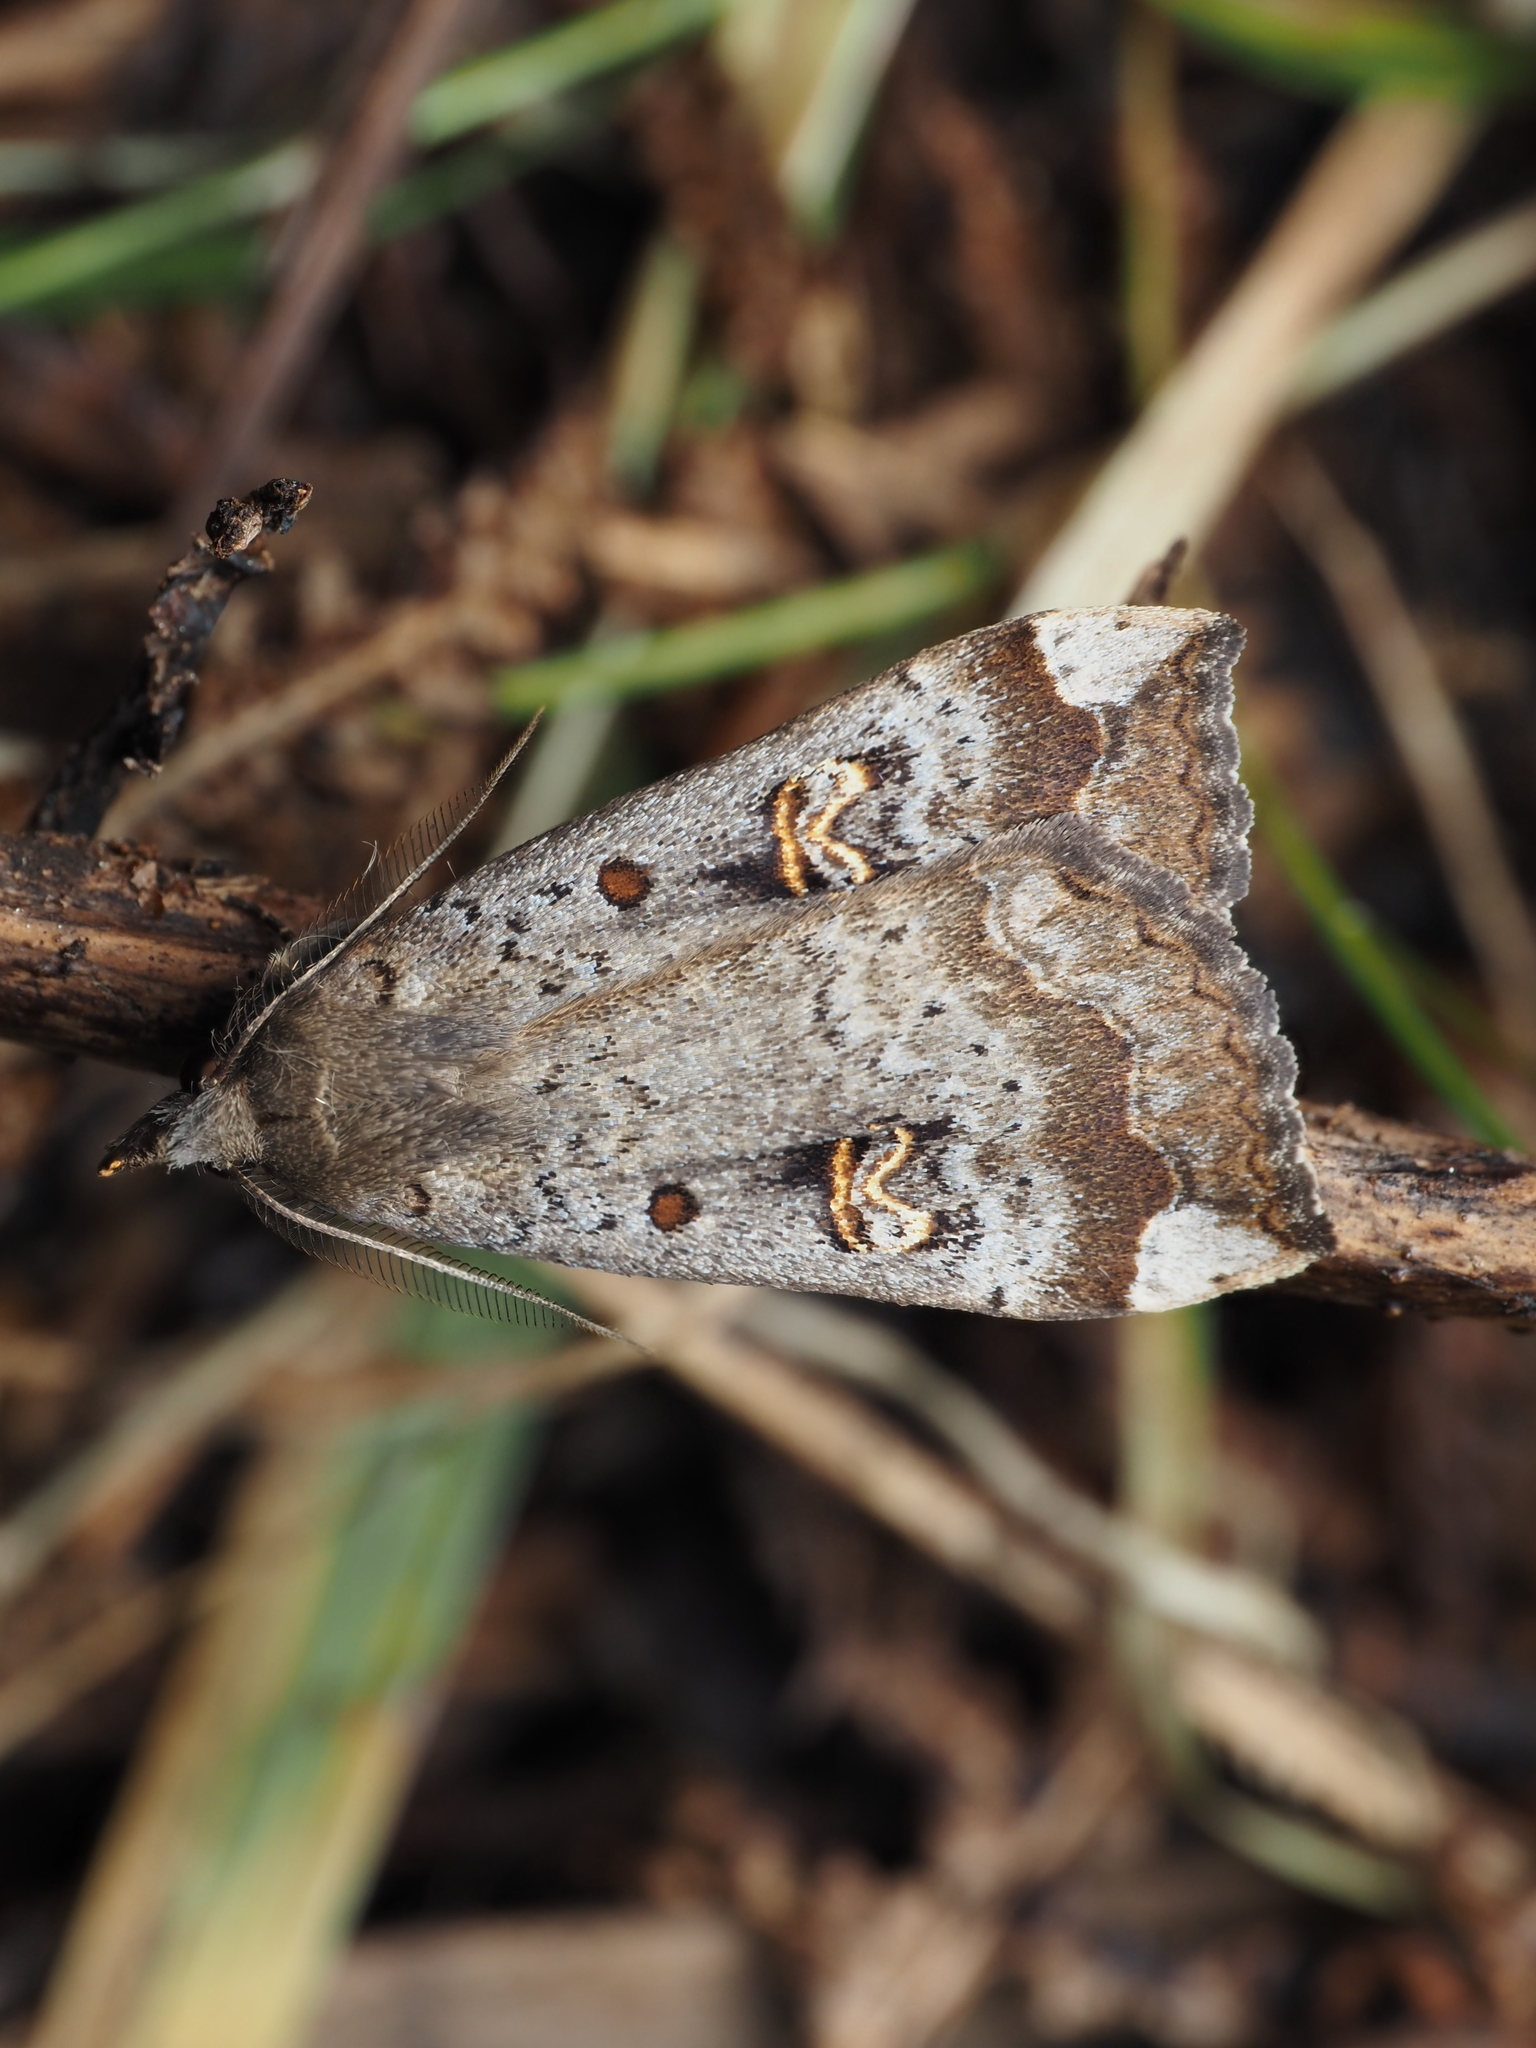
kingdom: Animalia
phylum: Arthropoda
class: Insecta
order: Lepidoptera
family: Erebidae
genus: Rhapsa
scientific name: Rhapsa scotosialis
